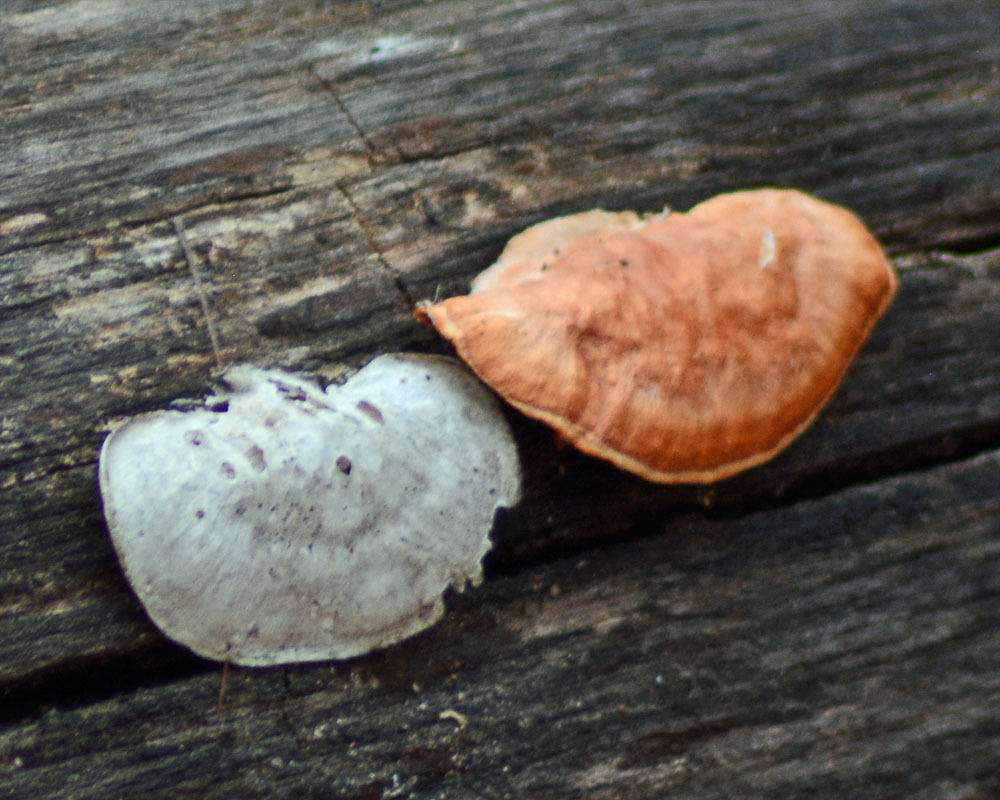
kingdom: Fungi
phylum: Basidiomycota
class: Agaricomycetes
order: Polyporales
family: Polyporaceae
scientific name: Polyporaceae
